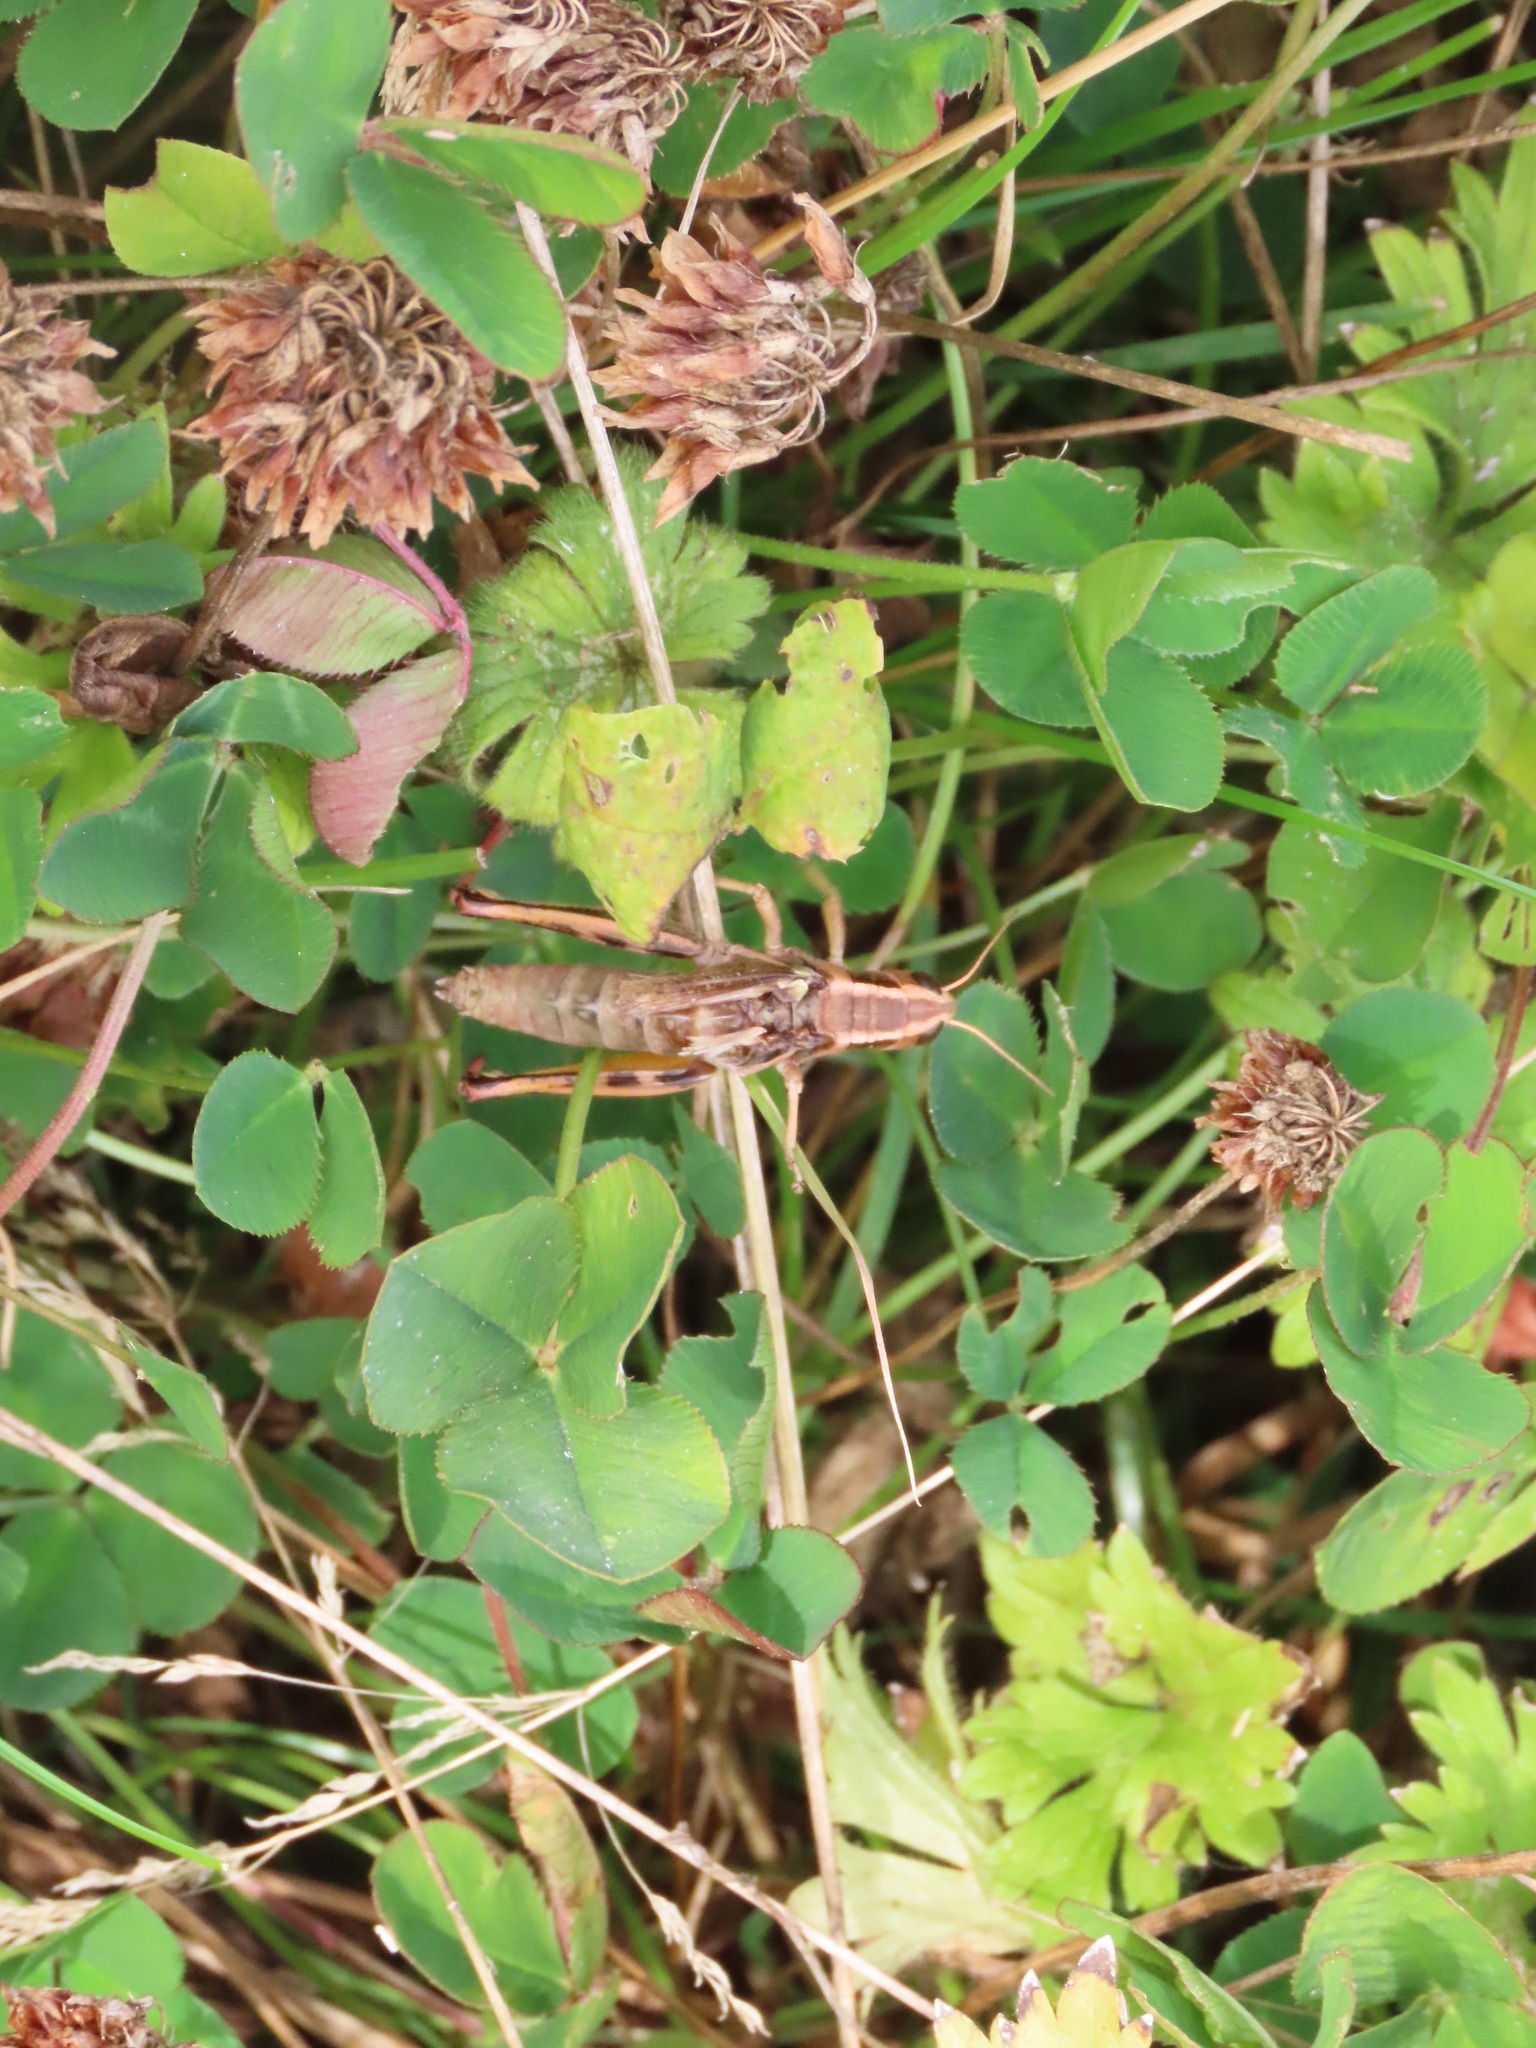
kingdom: Animalia
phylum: Arthropoda
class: Insecta
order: Orthoptera
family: Acrididae
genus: Melanoplus
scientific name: Melanoplus bivittatus
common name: Two-striped grasshopper
